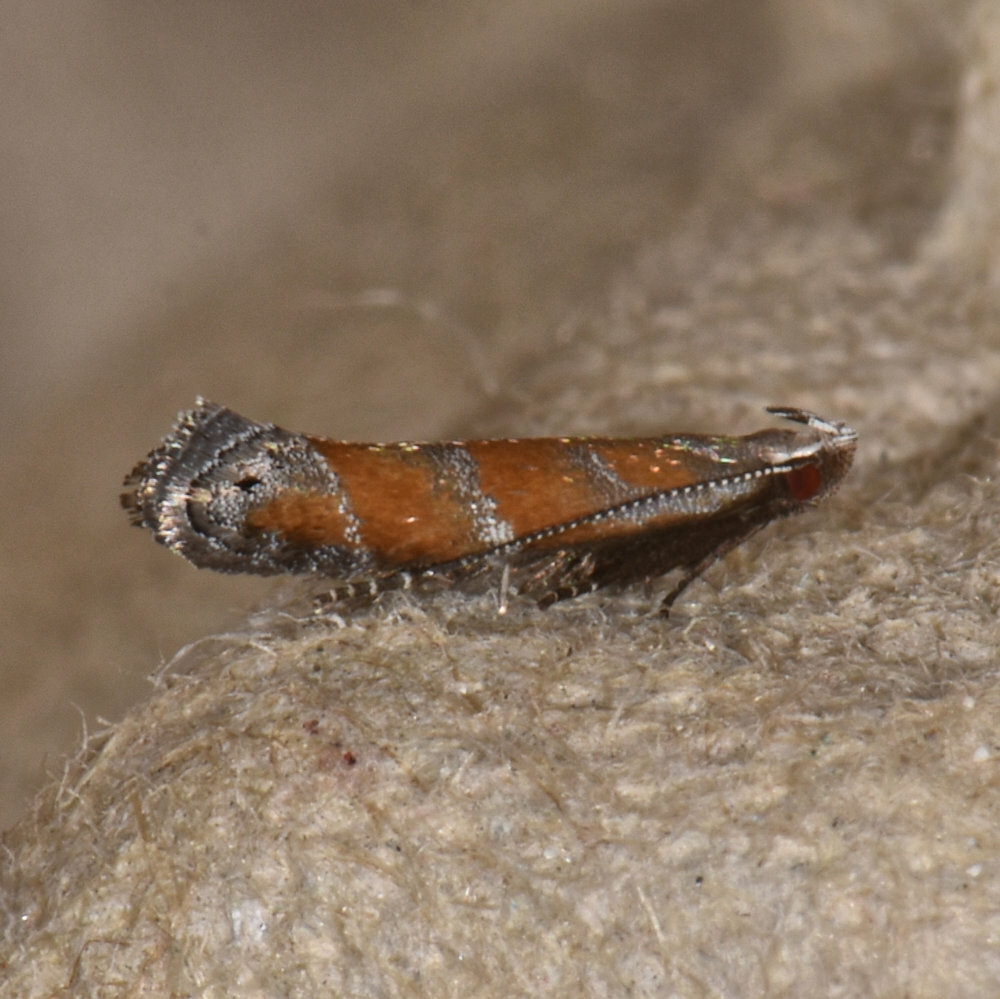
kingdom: Animalia
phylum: Arthropoda
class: Insecta
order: Lepidoptera
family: Gelechiidae
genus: Battaristis
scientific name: Battaristis vittella
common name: Orange stripe-backed moth
